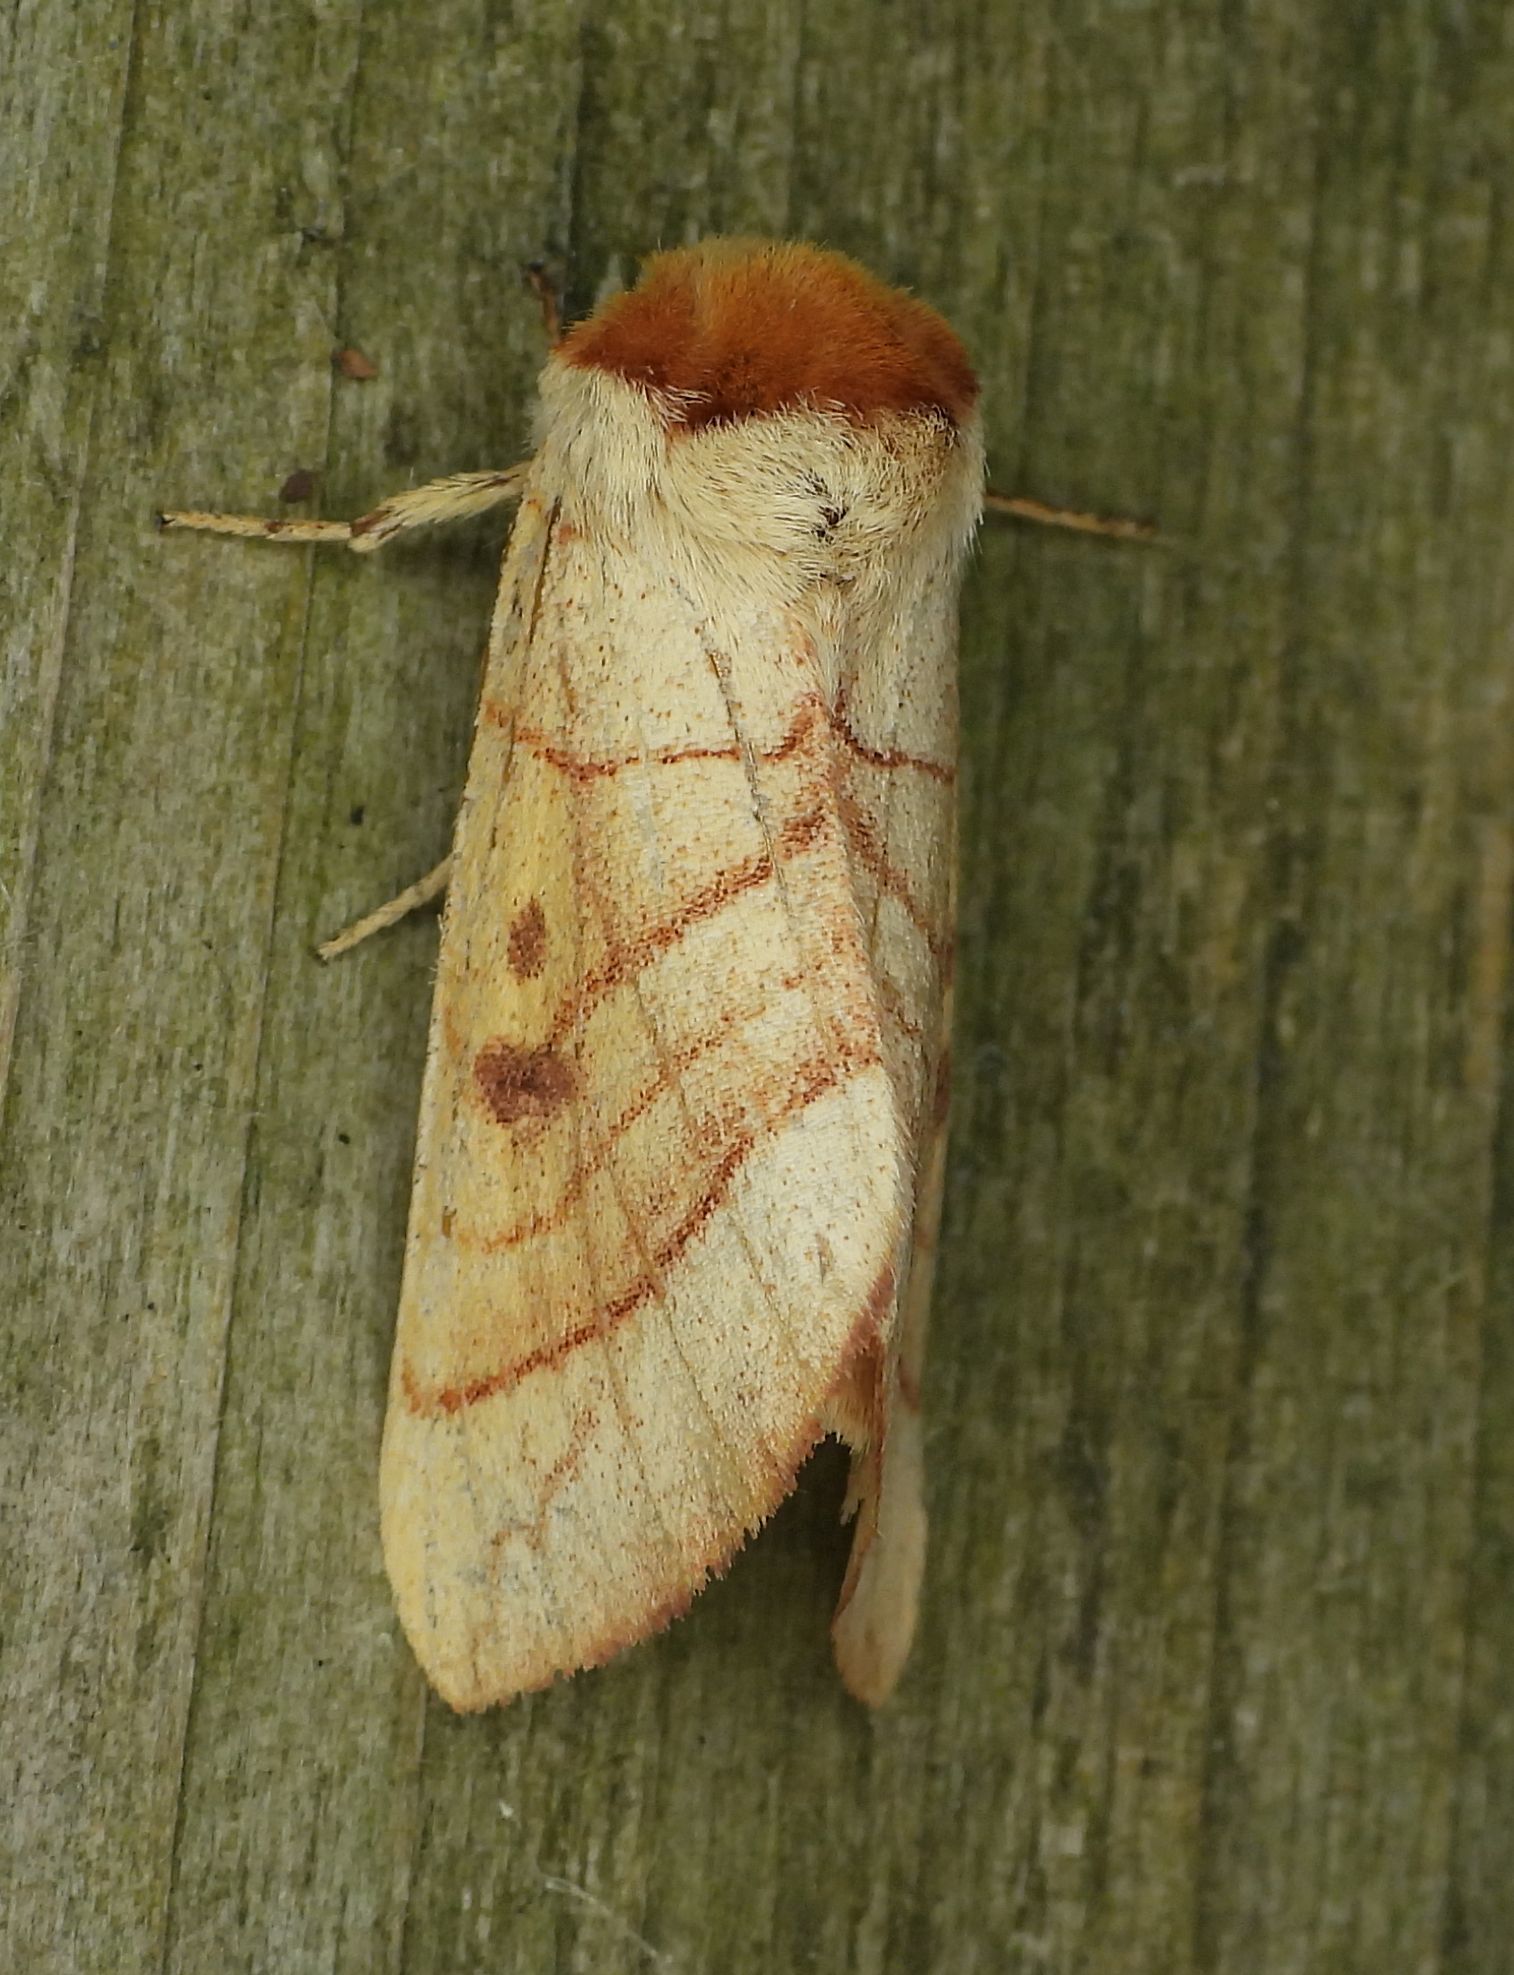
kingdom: Animalia
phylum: Arthropoda
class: Insecta
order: Lepidoptera
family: Notodontidae
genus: Datana
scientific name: Datana perspicua
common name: Spotted datana
